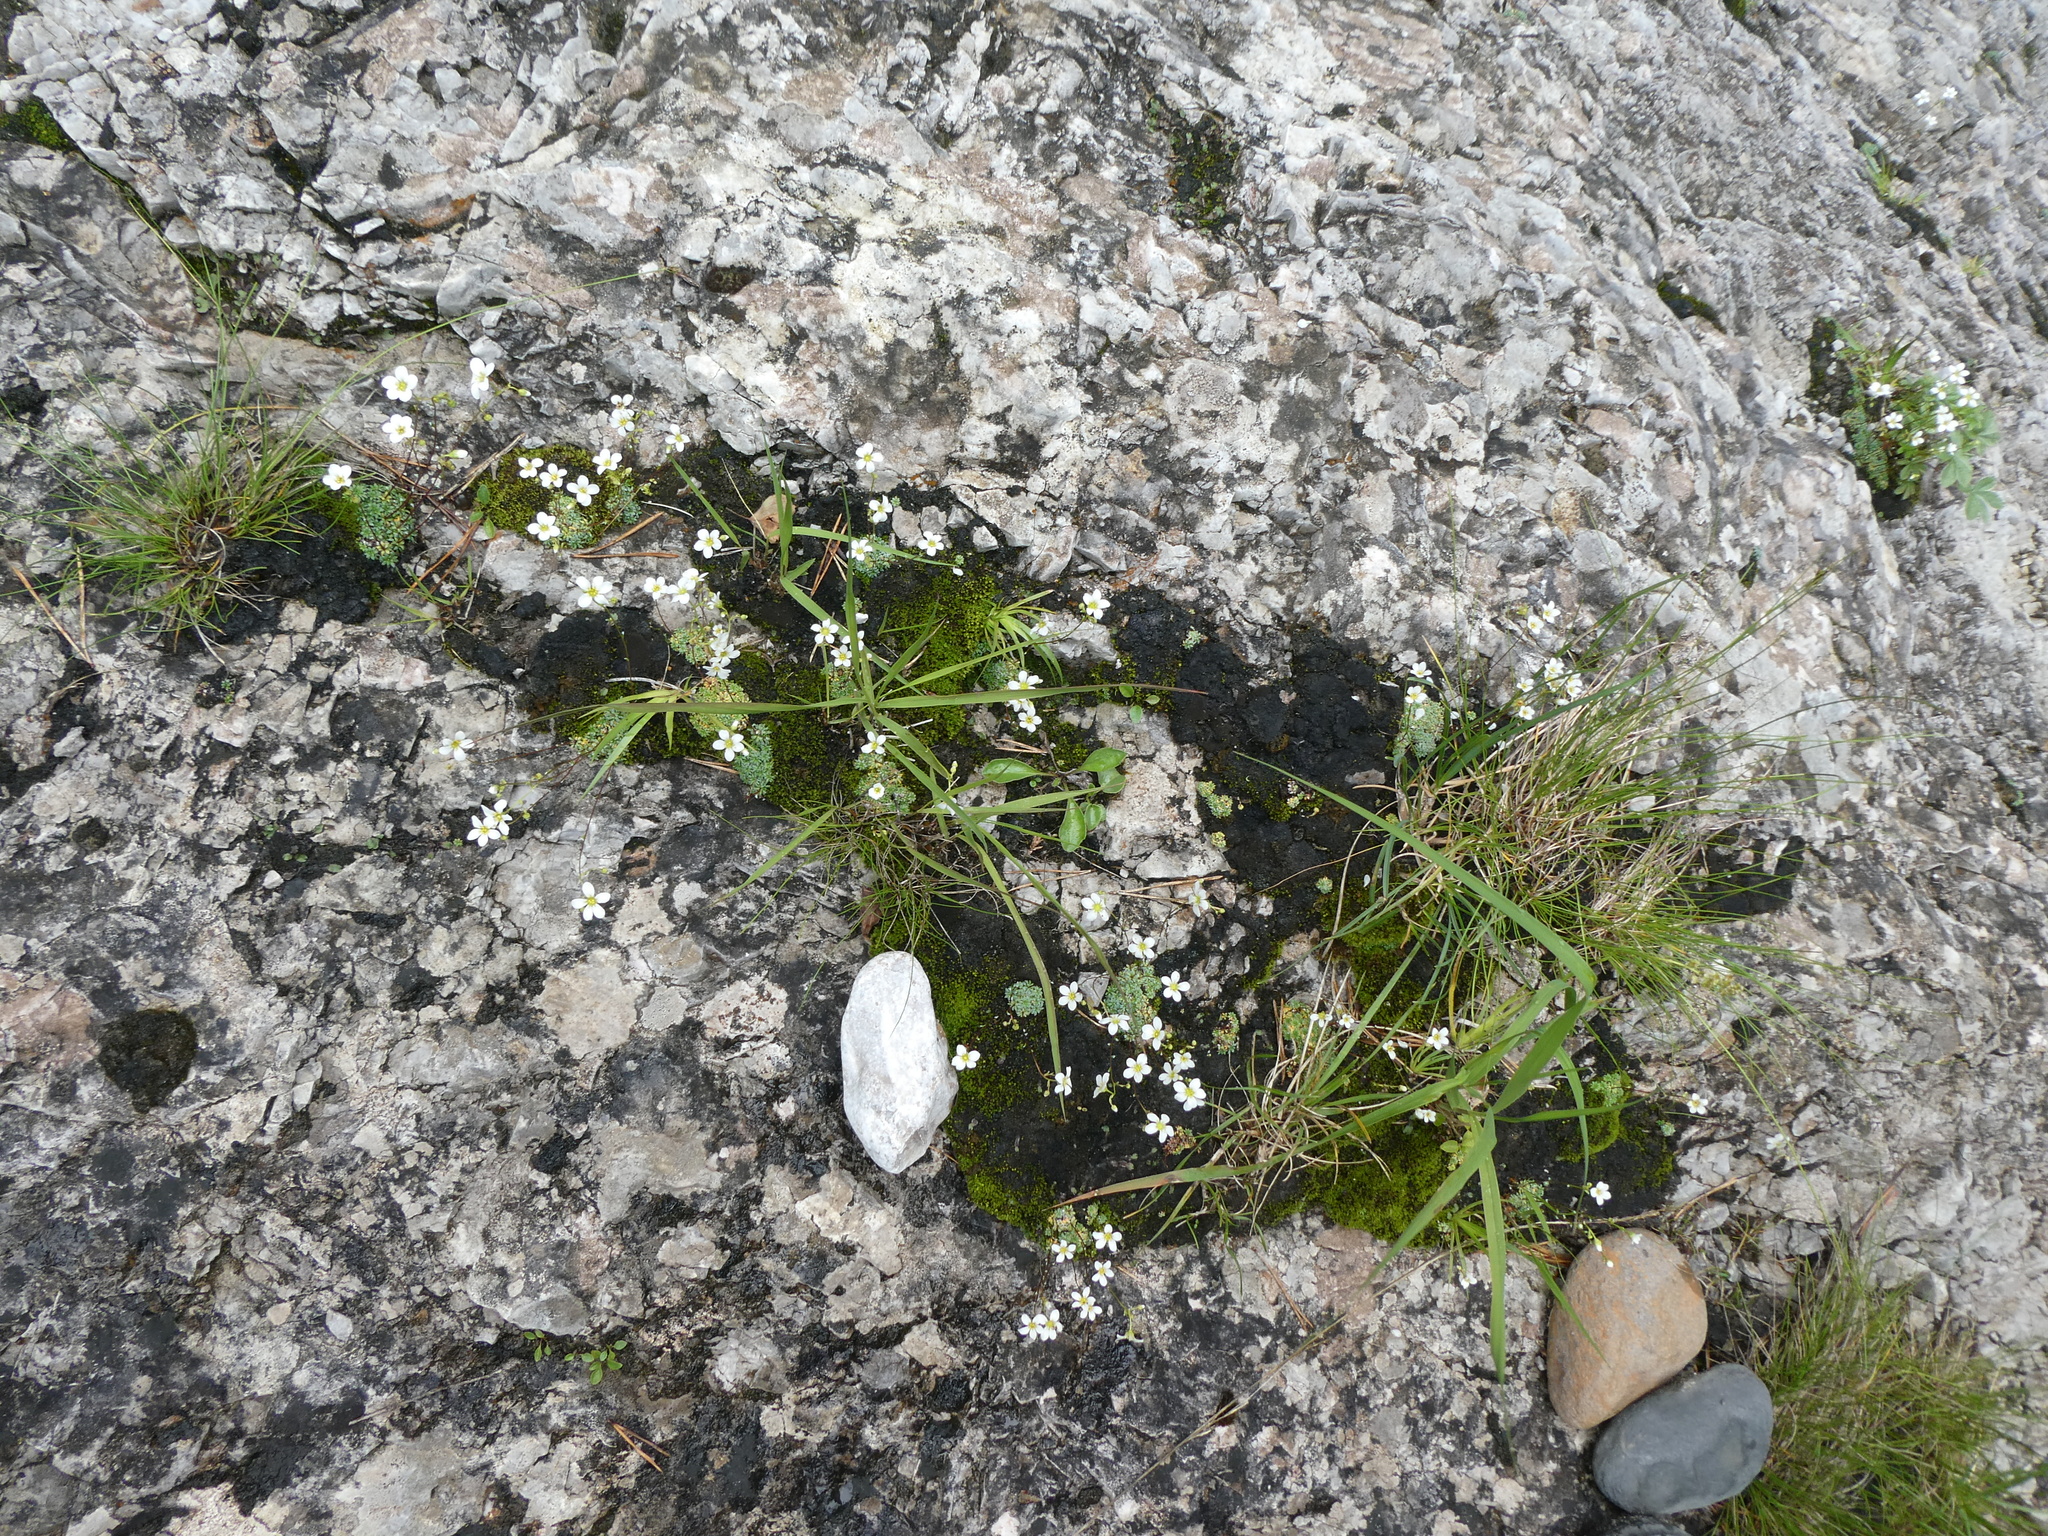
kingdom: Plantae
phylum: Tracheophyta
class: Magnoliopsida
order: Saxifragales
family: Saxifragaceae
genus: Saxifraga
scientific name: Saxifraga caesia
